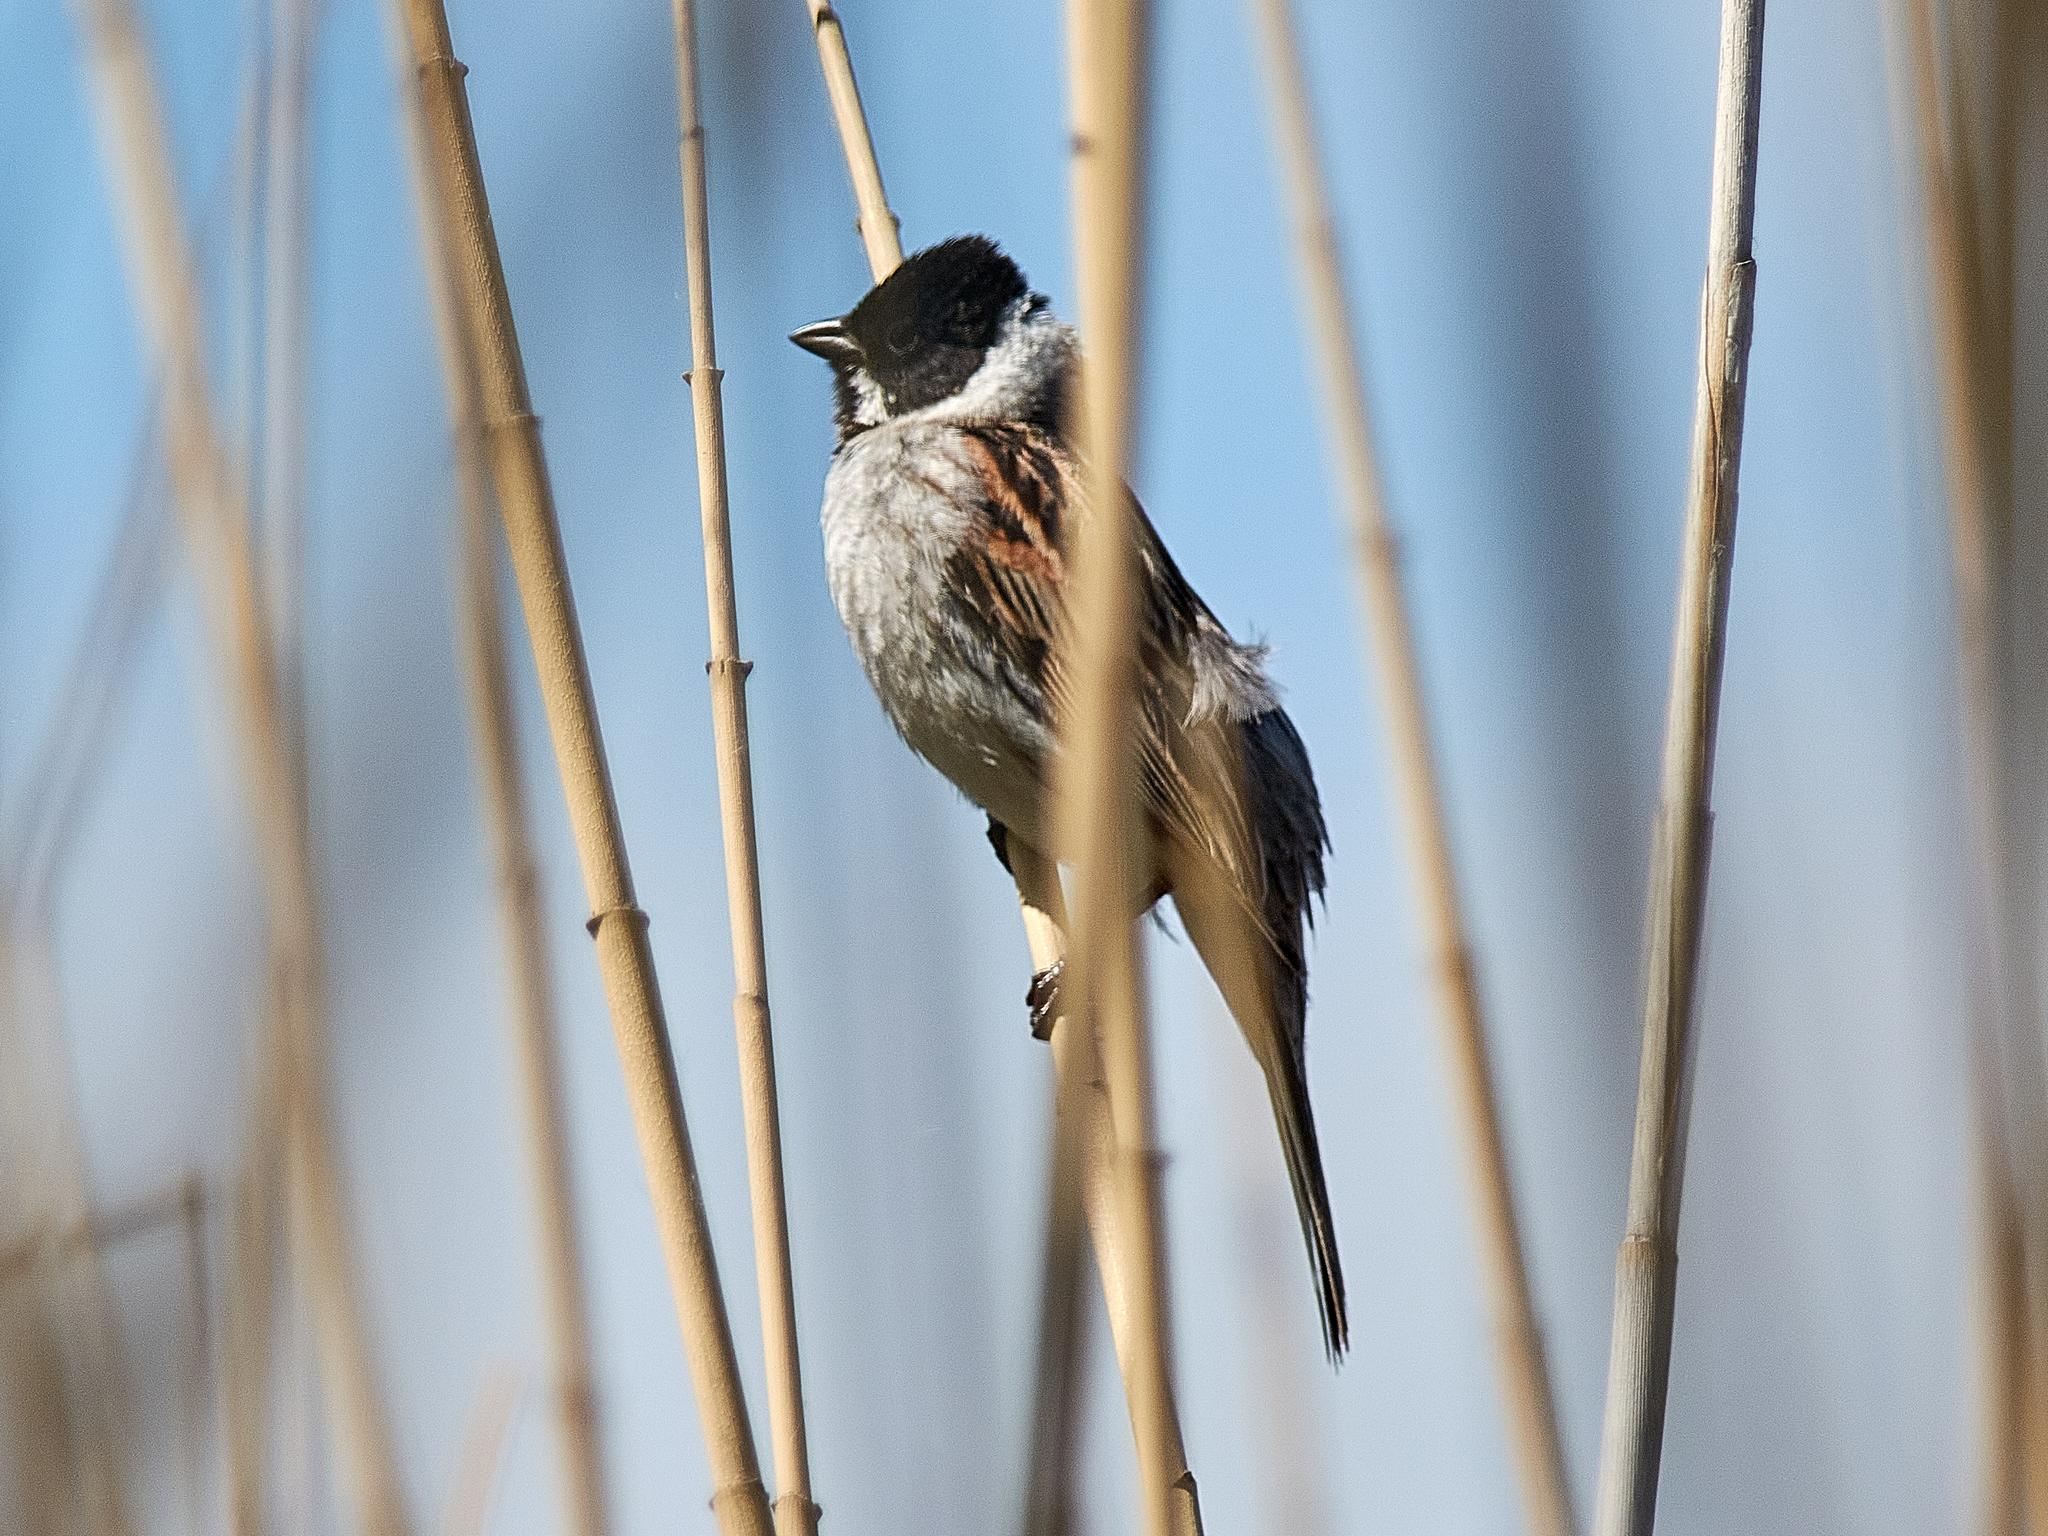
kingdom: Animalia
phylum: Chordata
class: Aves
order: Passeriformes
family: Emberizidae
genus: Emberiza
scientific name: Emberiza schoeniclus
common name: Reed bunting
